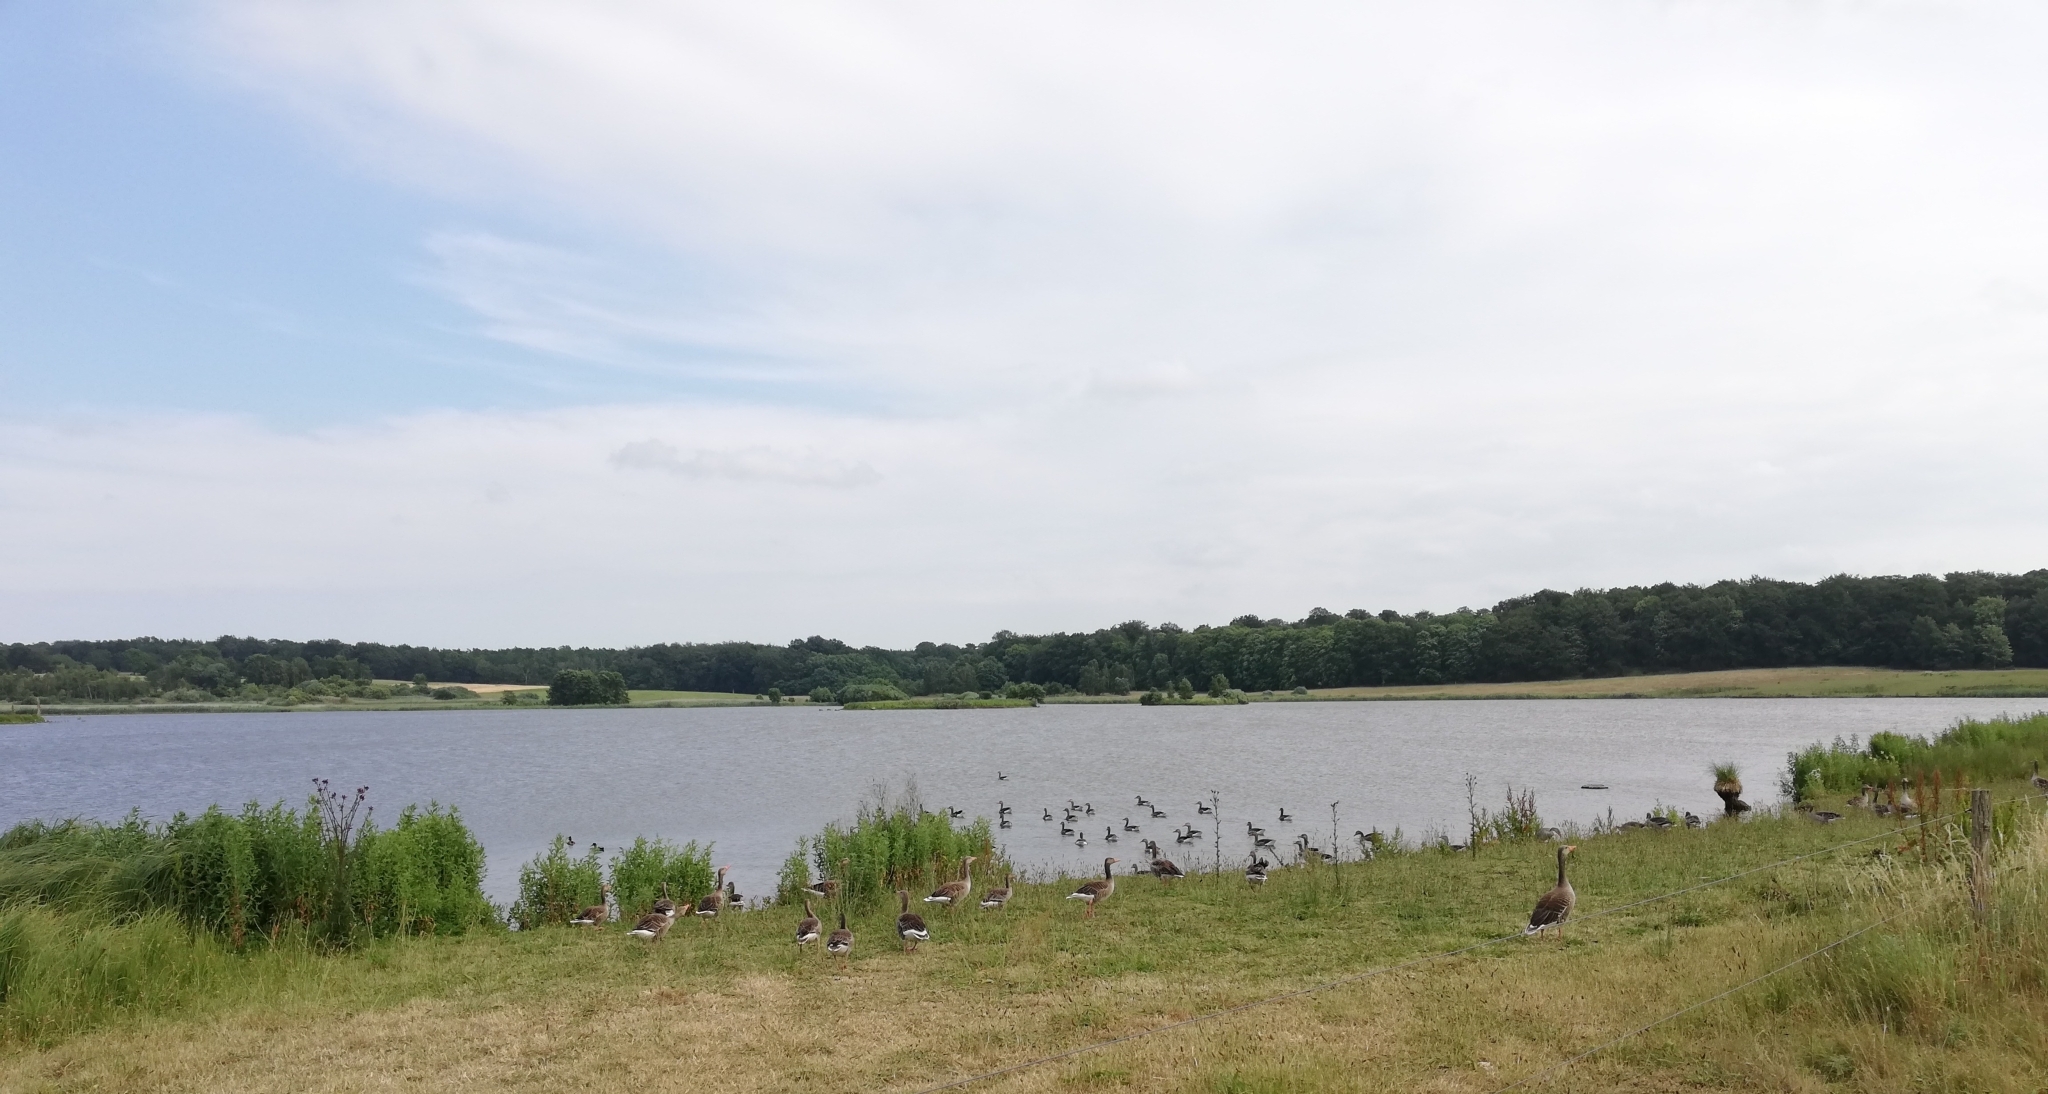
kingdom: Animalia
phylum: Chordata
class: Aves
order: Anseriformes
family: Anatidae
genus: Anser
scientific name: Anser anser
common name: Greylag goose
